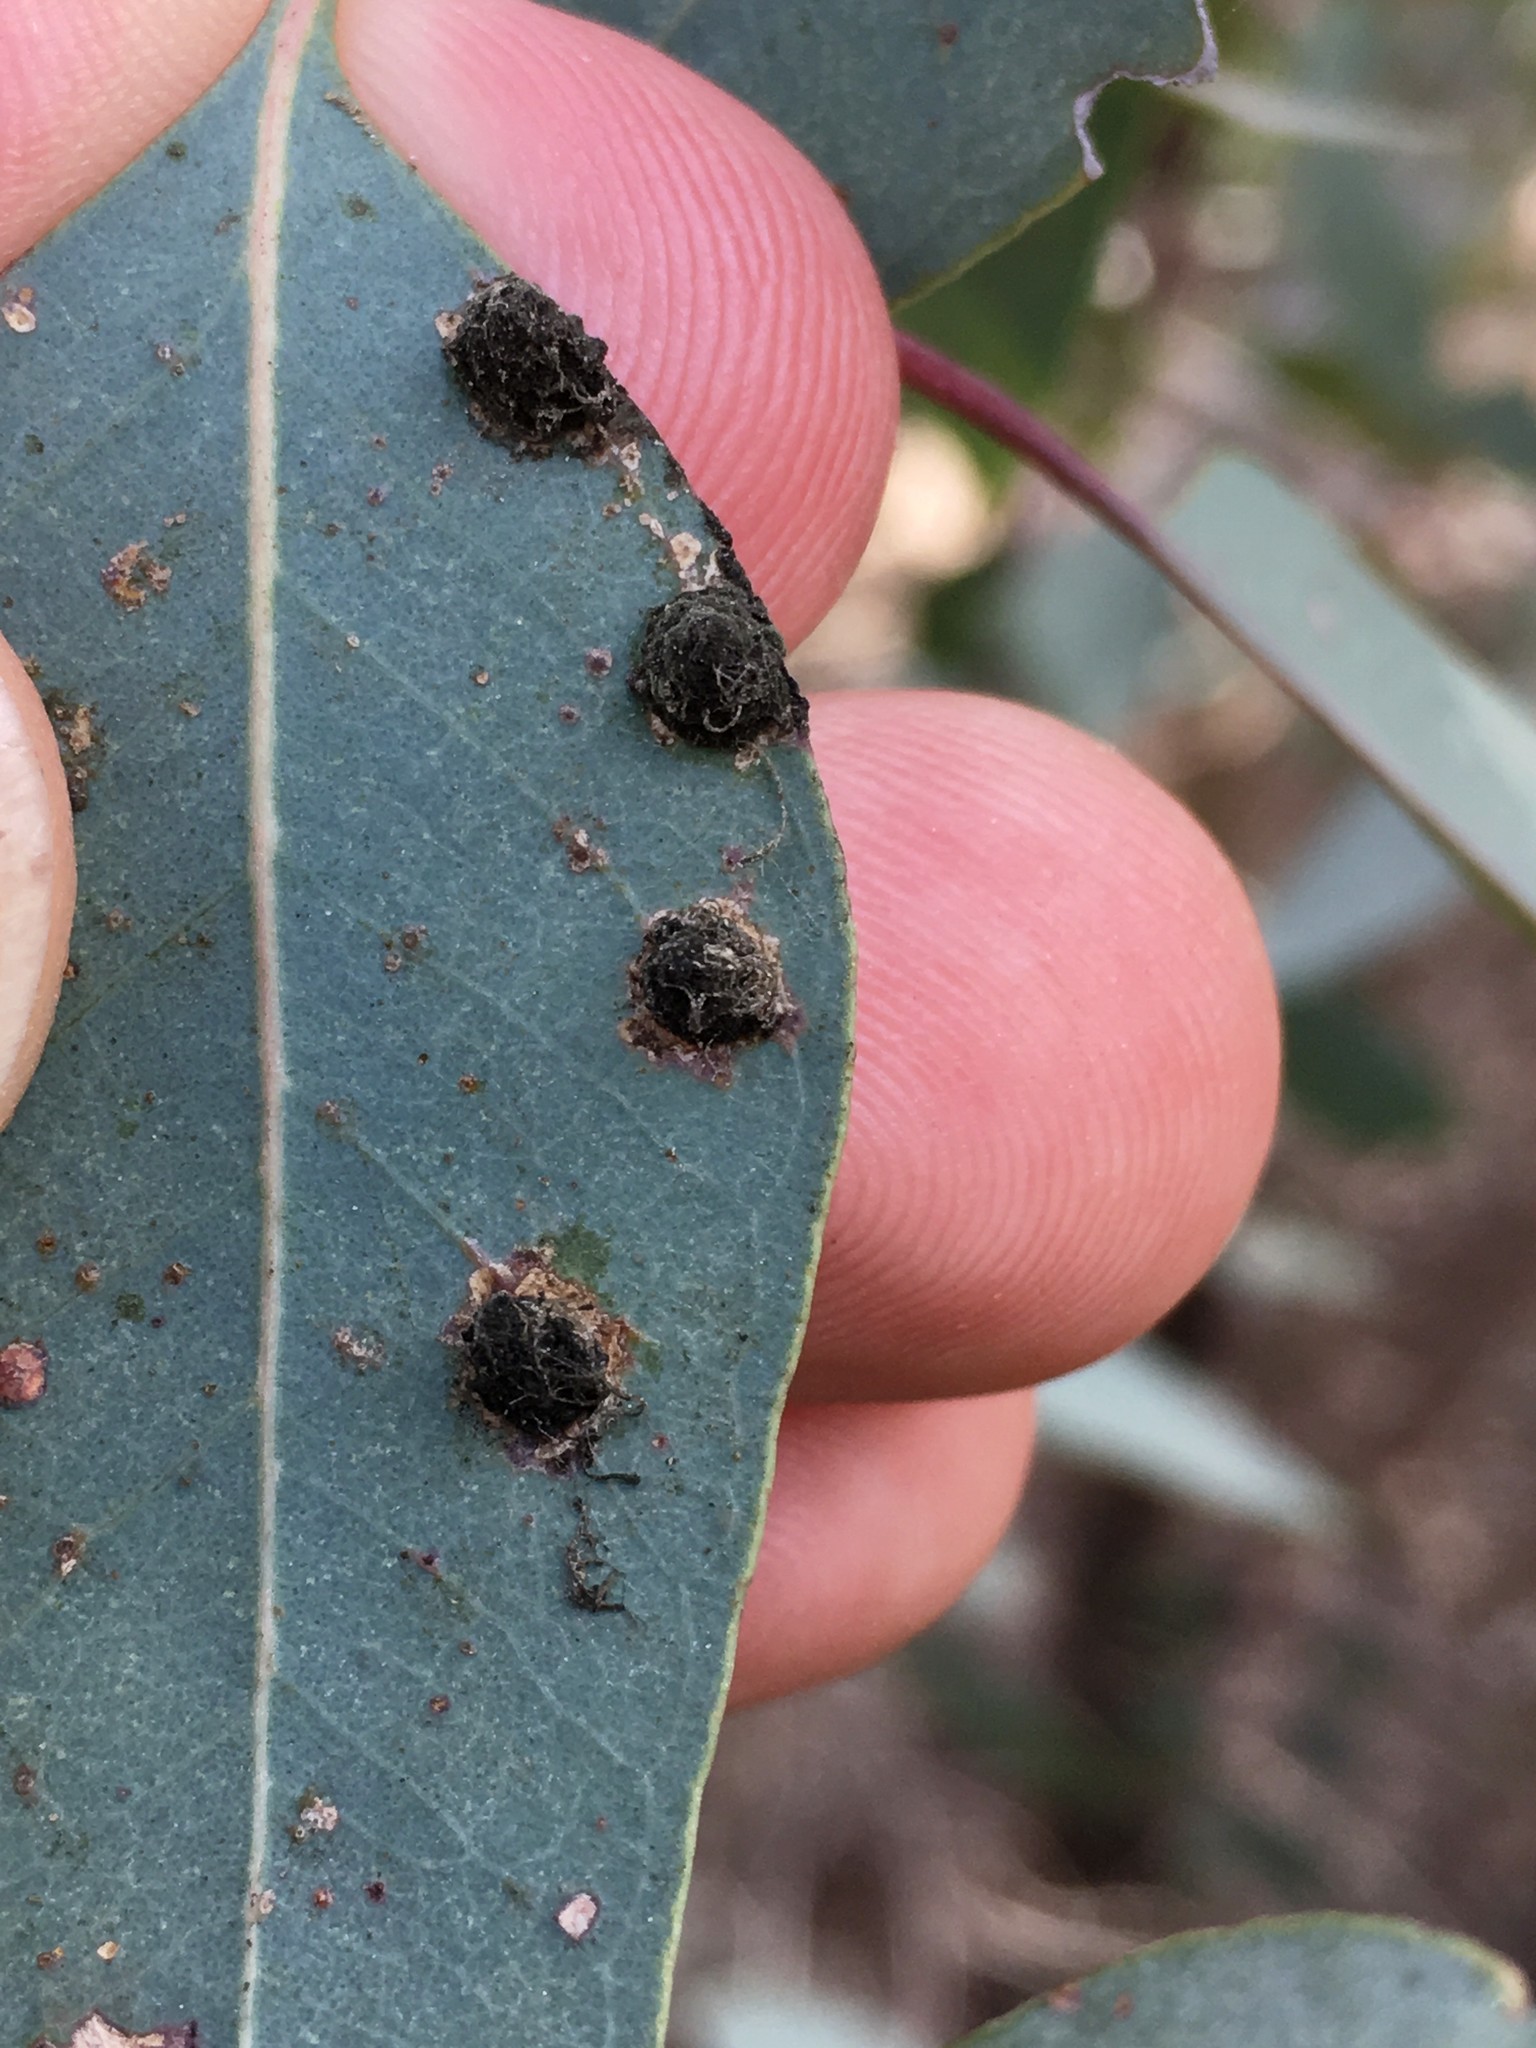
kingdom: Animalia
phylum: Arthropoda
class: Insecta
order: Hemiptera
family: Aphalaridae
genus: Glycaspis
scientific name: Glycaspis brimblecombei
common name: Red gum lerp psyllid
